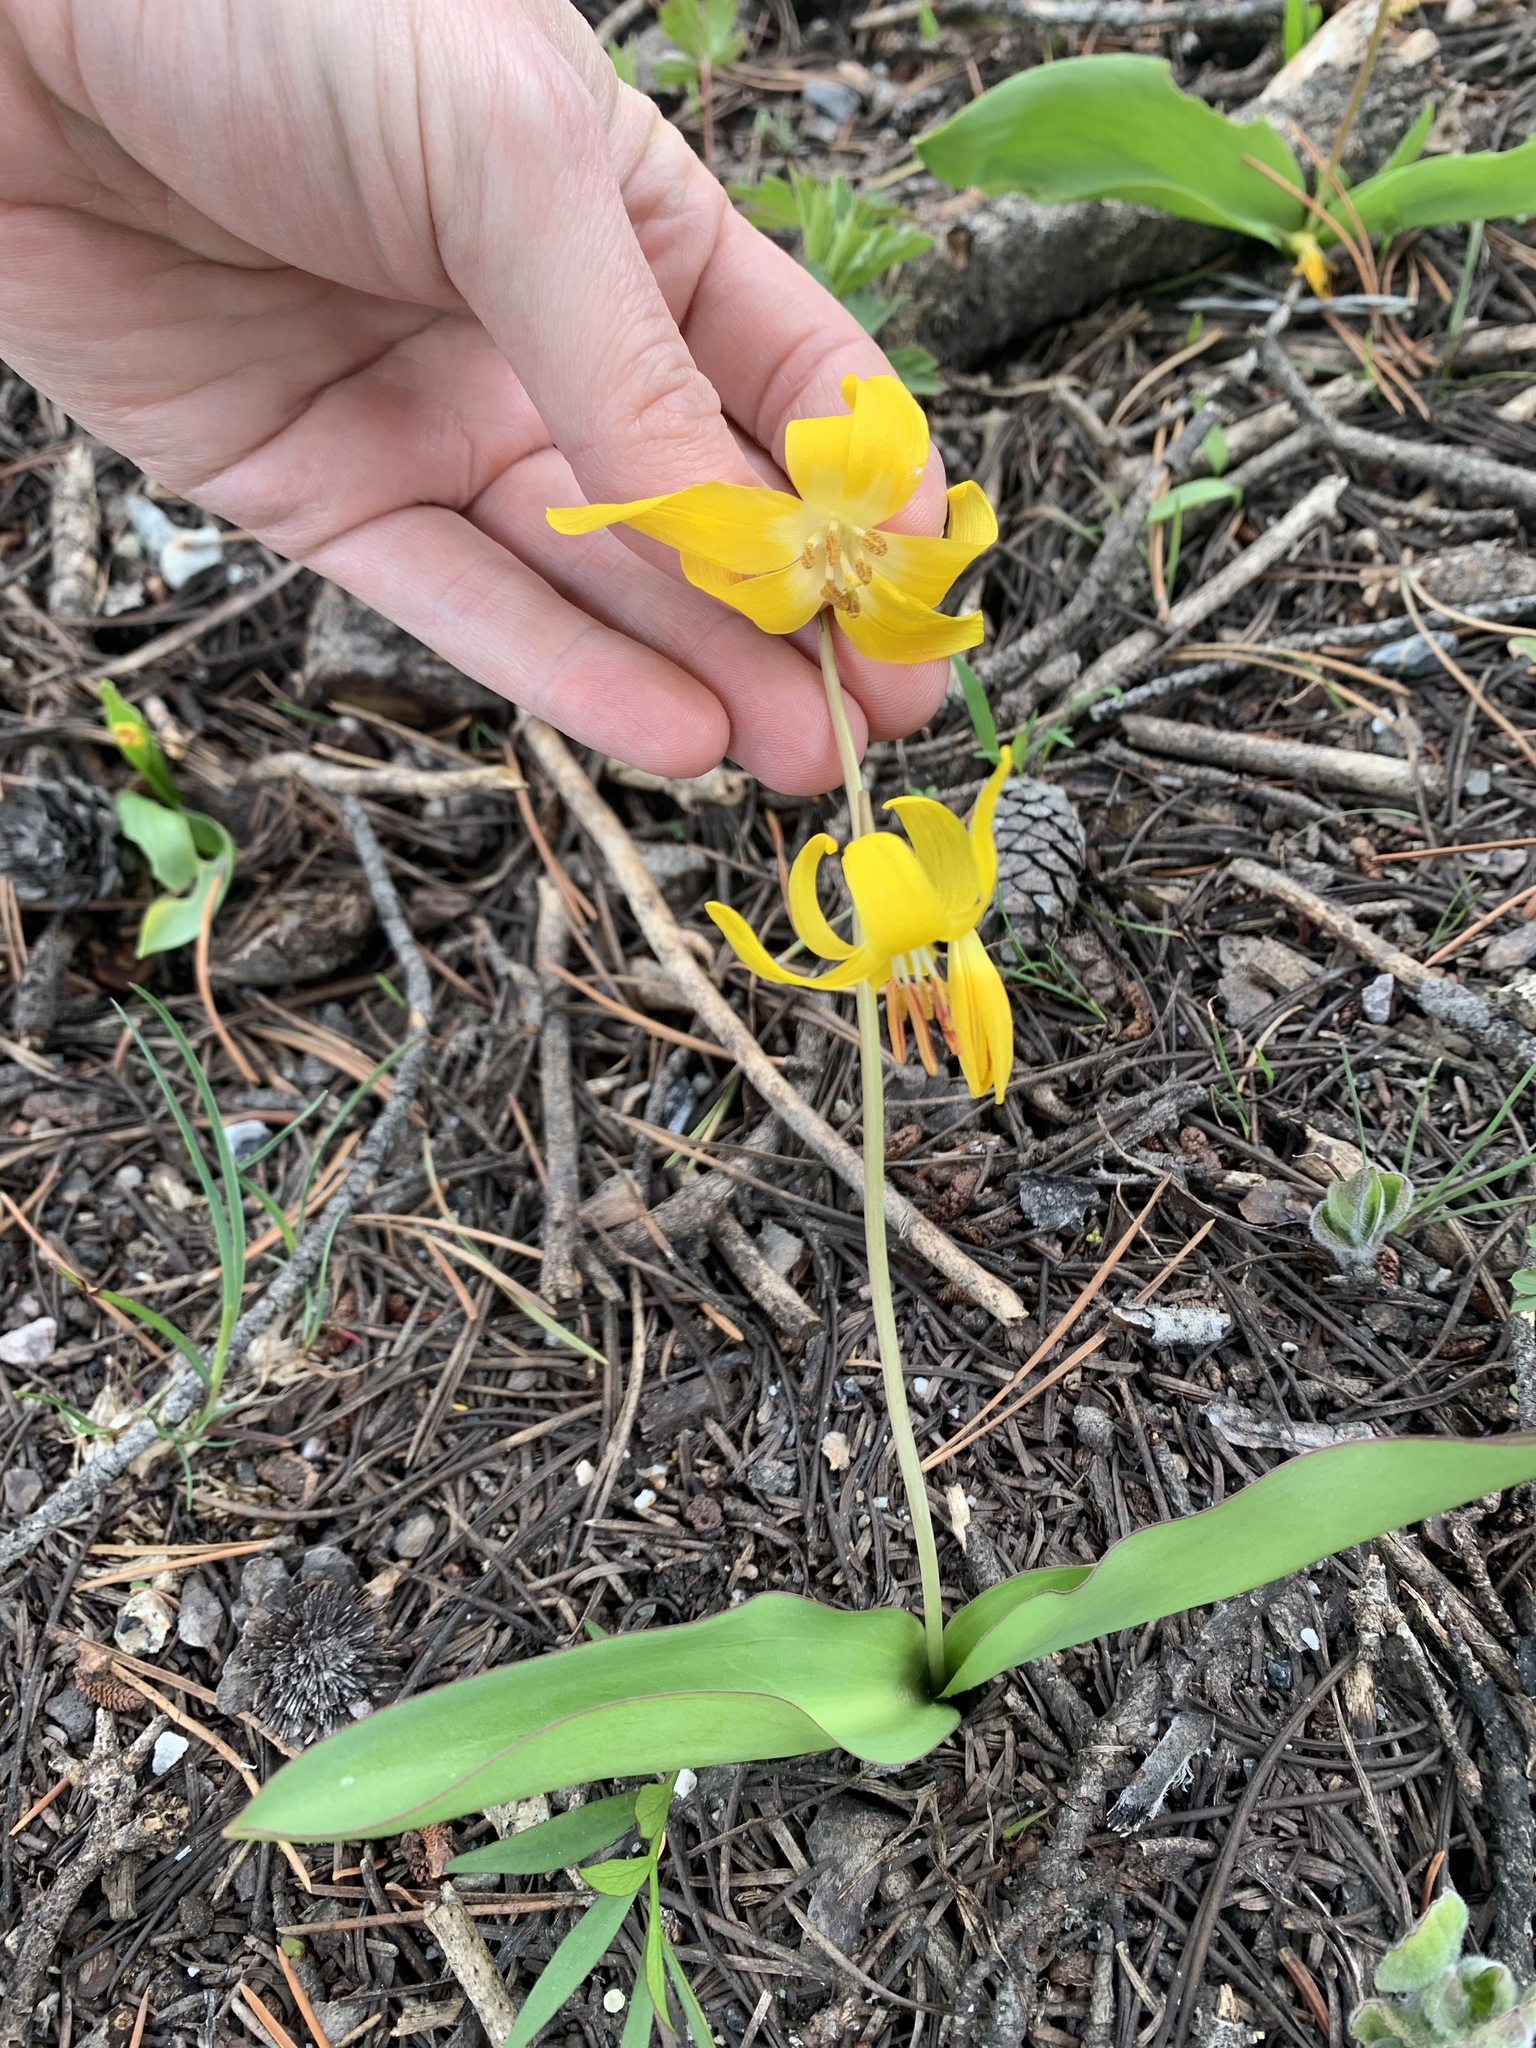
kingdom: Plantae
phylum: Tracheophyta
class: Liliopsida
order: Liliales
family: Liliaceae
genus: Erythronium
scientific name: Erythronium grandiflorum
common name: Avalanche-lily
